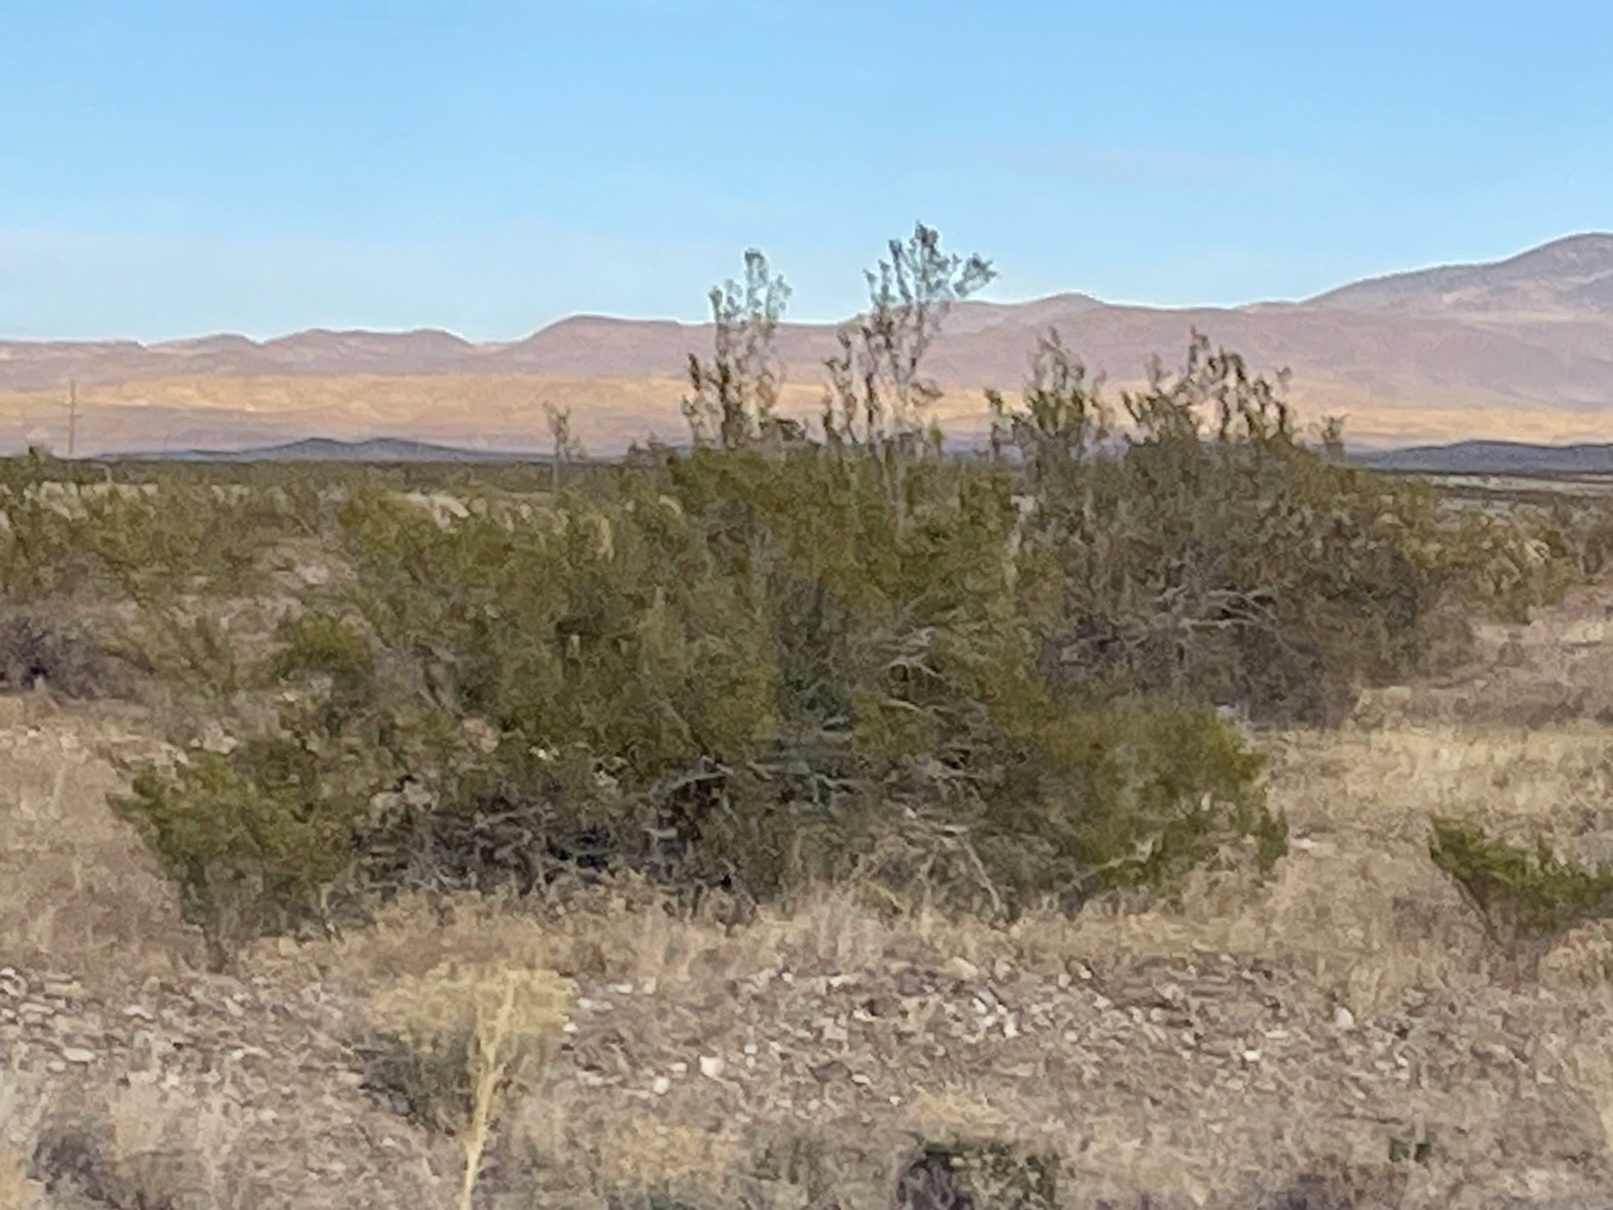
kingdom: Plantae
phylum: Tracheophyta
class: Magnoliopsida
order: Zygophyllales
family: Zygophyllaceae
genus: Larrea
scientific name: Larrea tridentata
